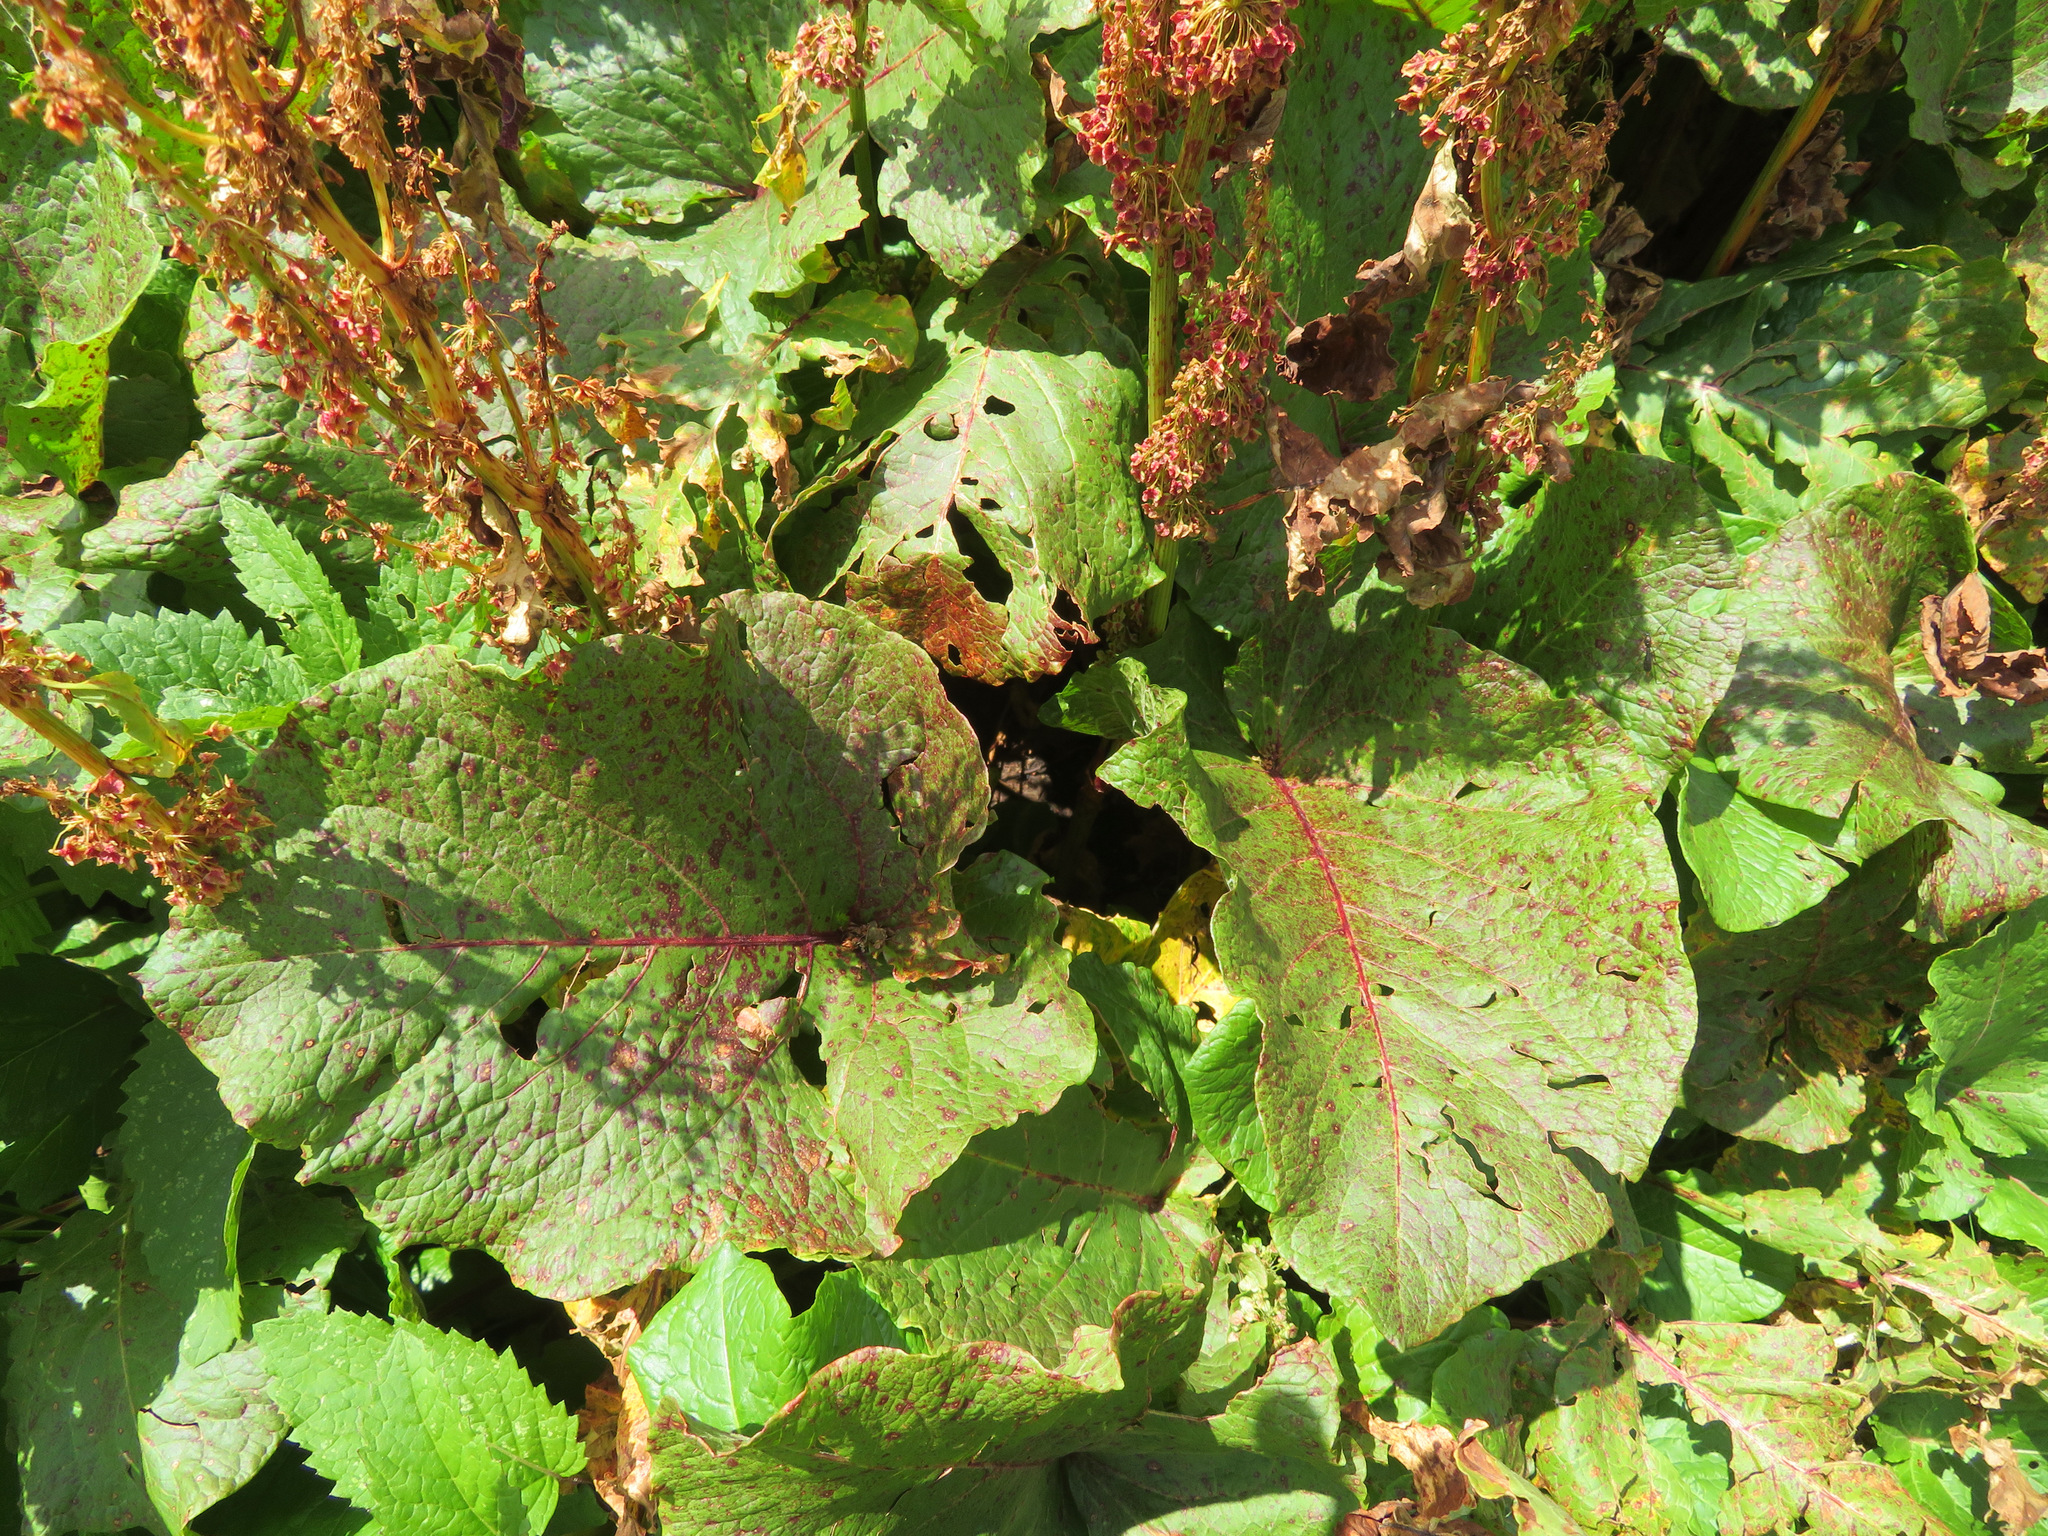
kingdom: Plantae
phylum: Tracheophyta
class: Magnoliopsida
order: Caryophyllales
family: Polygonaceae
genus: Rumex
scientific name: Rumex alpinus
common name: Alpine dock
